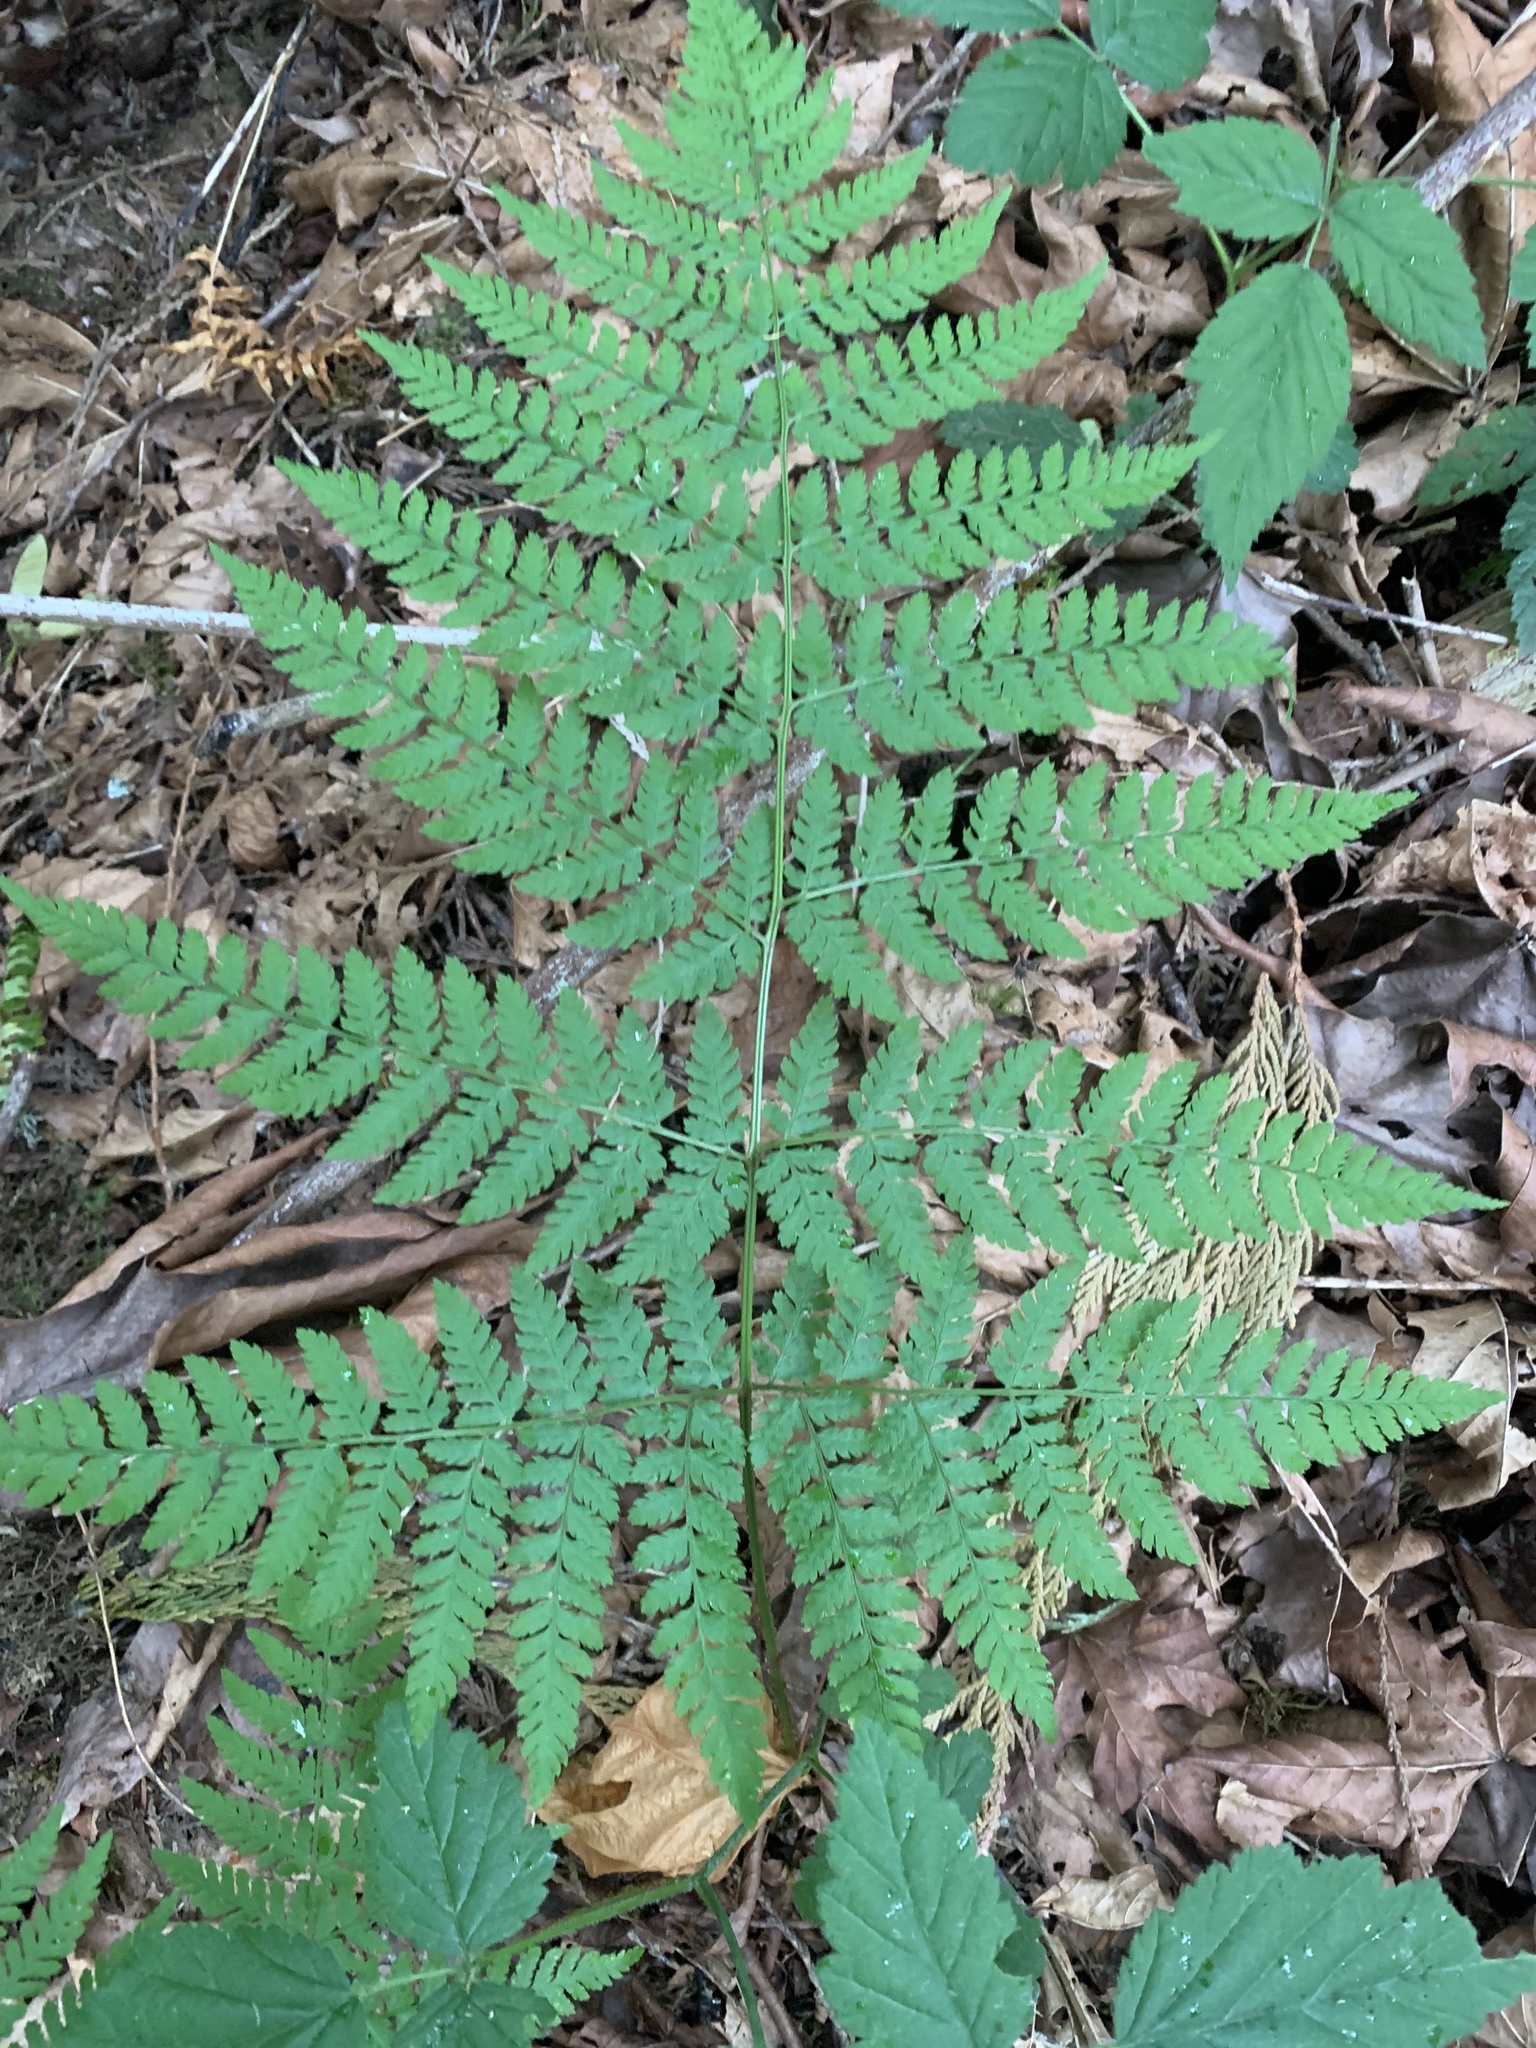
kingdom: Plantae
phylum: Tracheophyta
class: Polypodiopsida
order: Polypodiales
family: Dryopteridaceae
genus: Dryopteris
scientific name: Dryopteris expansa
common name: Northern buckler fern
